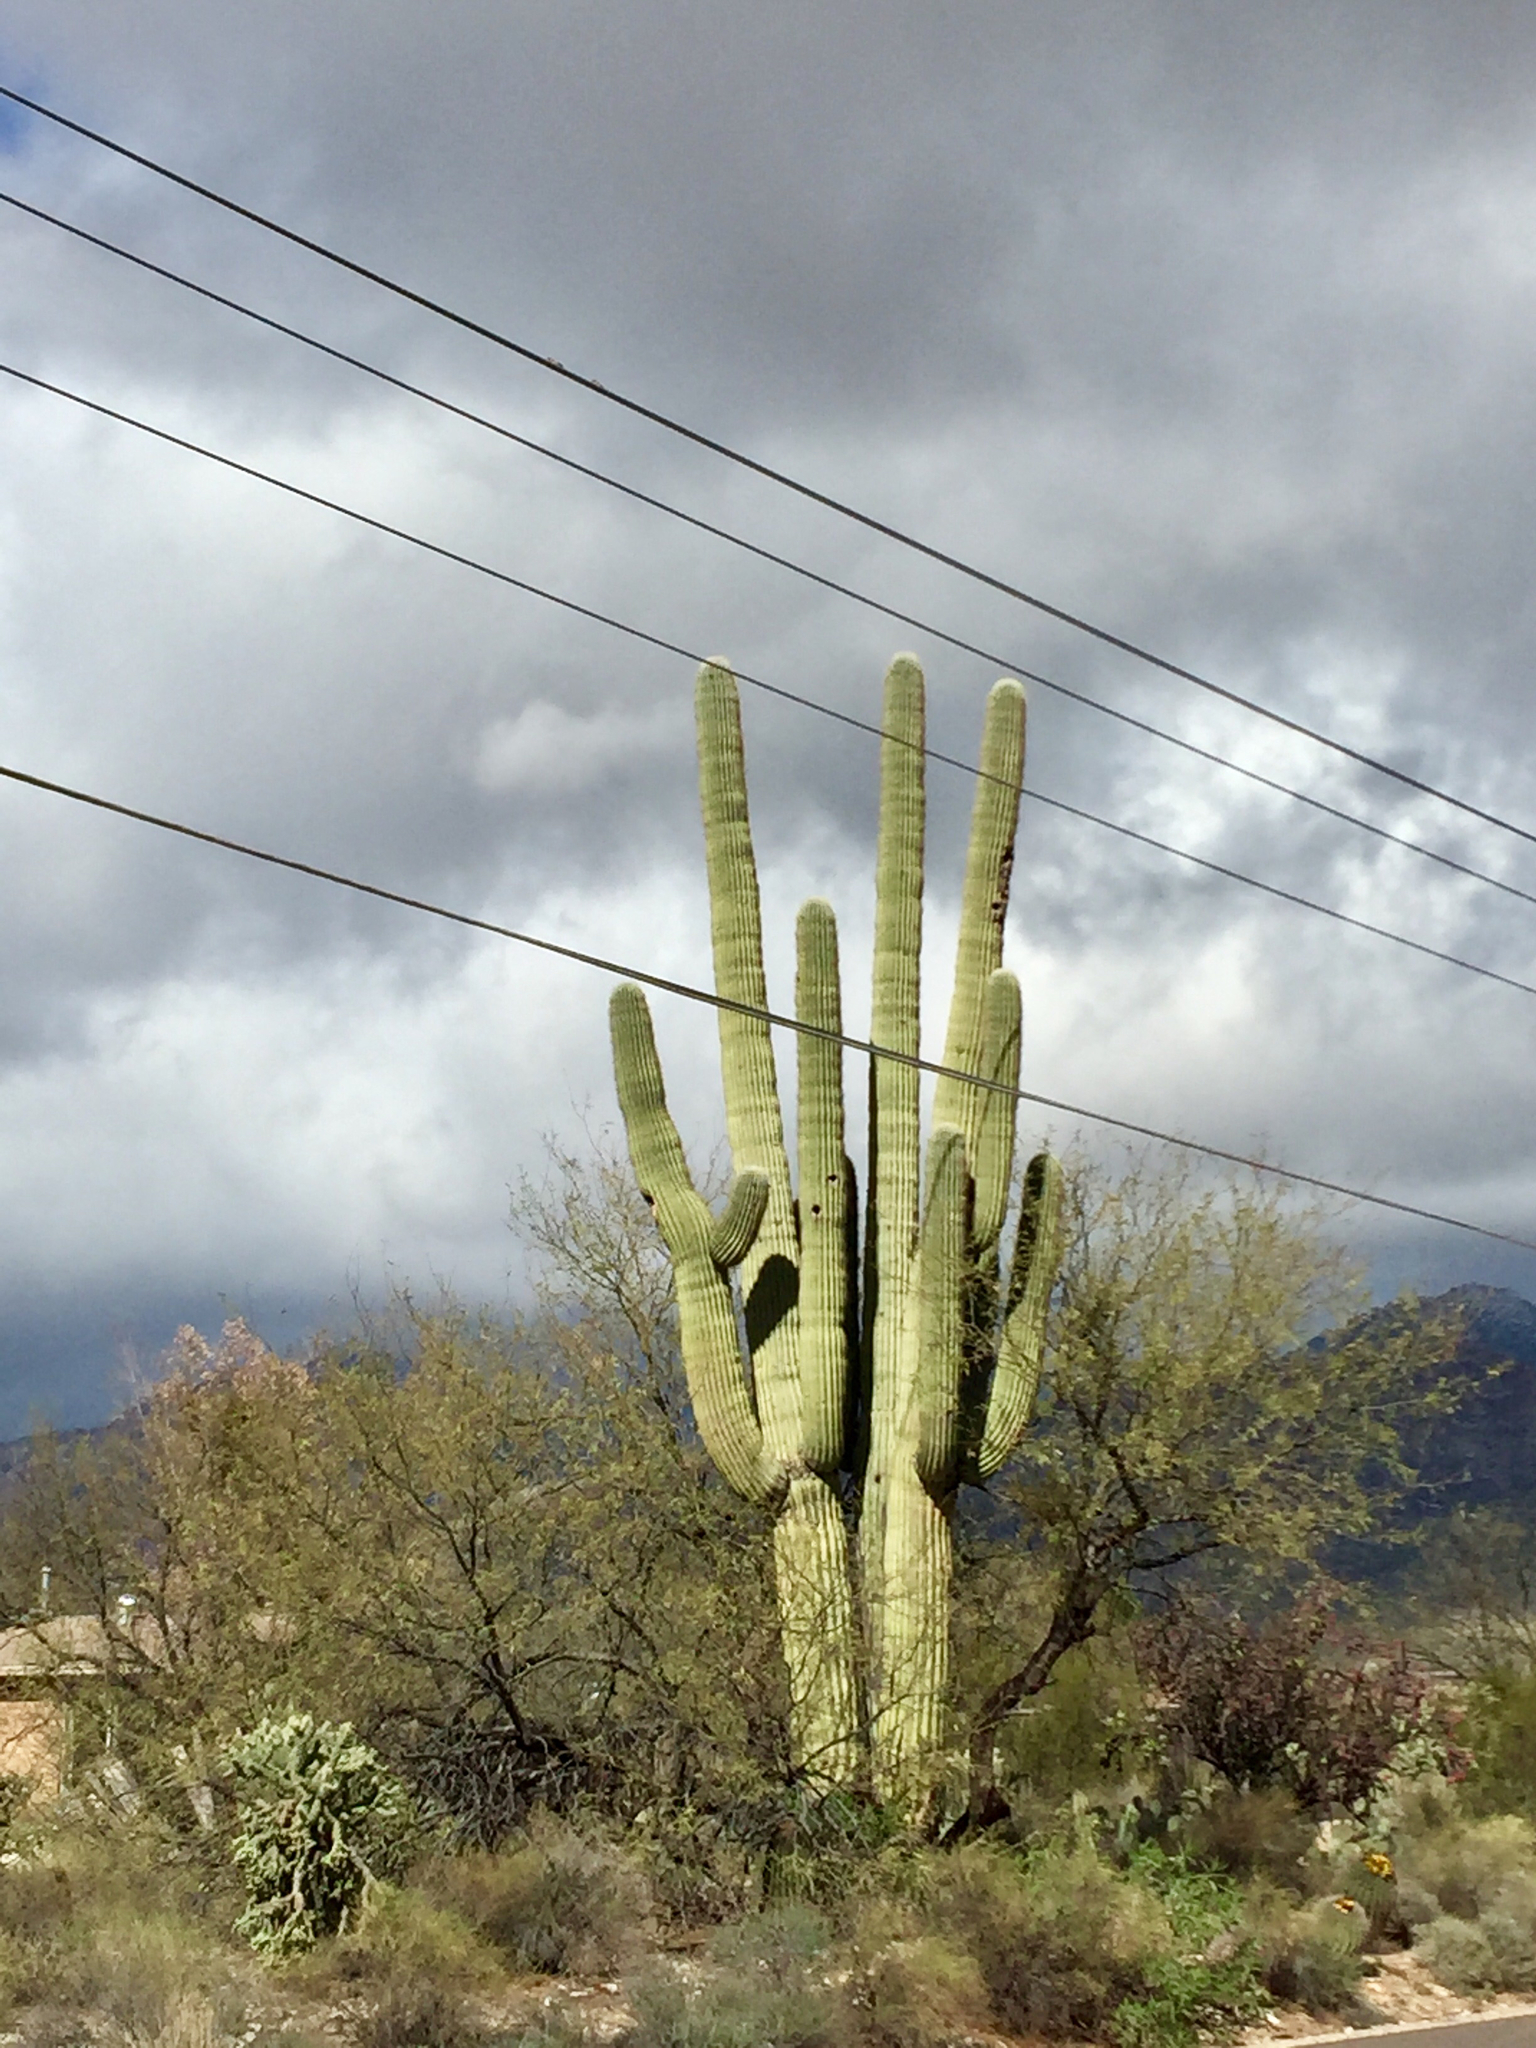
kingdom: Plantae
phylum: Tracheophyta
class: Magnoliopsida
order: Caryophyllales
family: Cactaceae
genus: Carnegiea
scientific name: Carnegiea gigantea
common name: Saguaro
